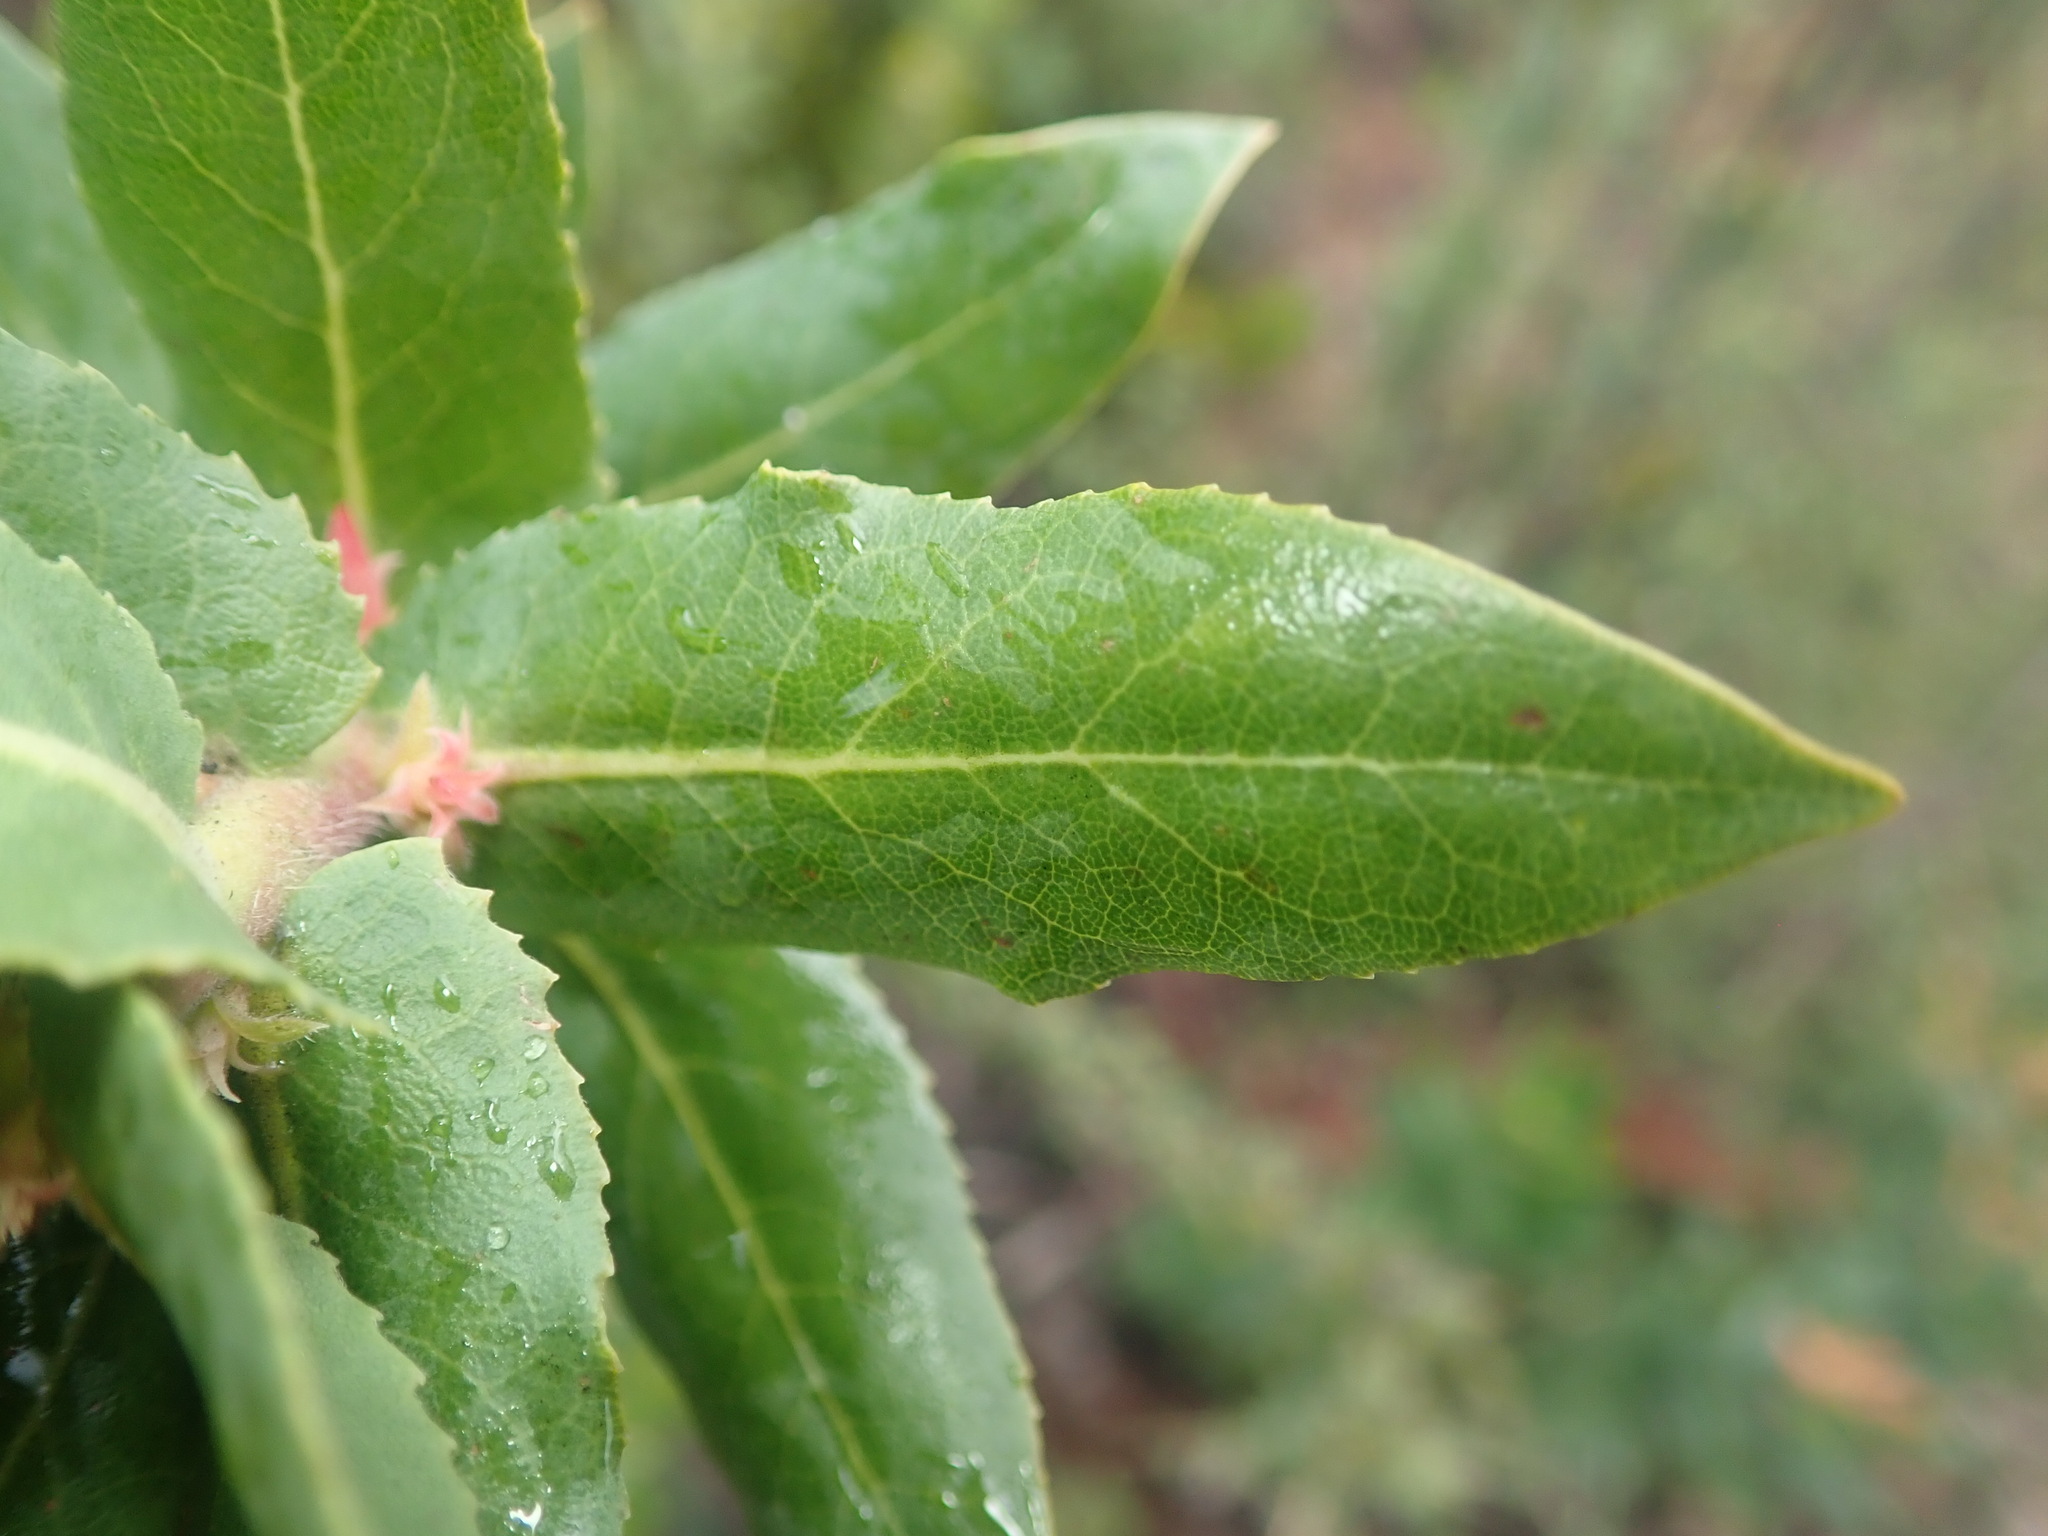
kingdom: Plantae
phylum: Tracheophyta
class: Magnoliopsida
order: Ericales
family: Ericaceae
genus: Arctostaphylos
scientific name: Arctostaphylos andersonii
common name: Santa cruz manzanita
